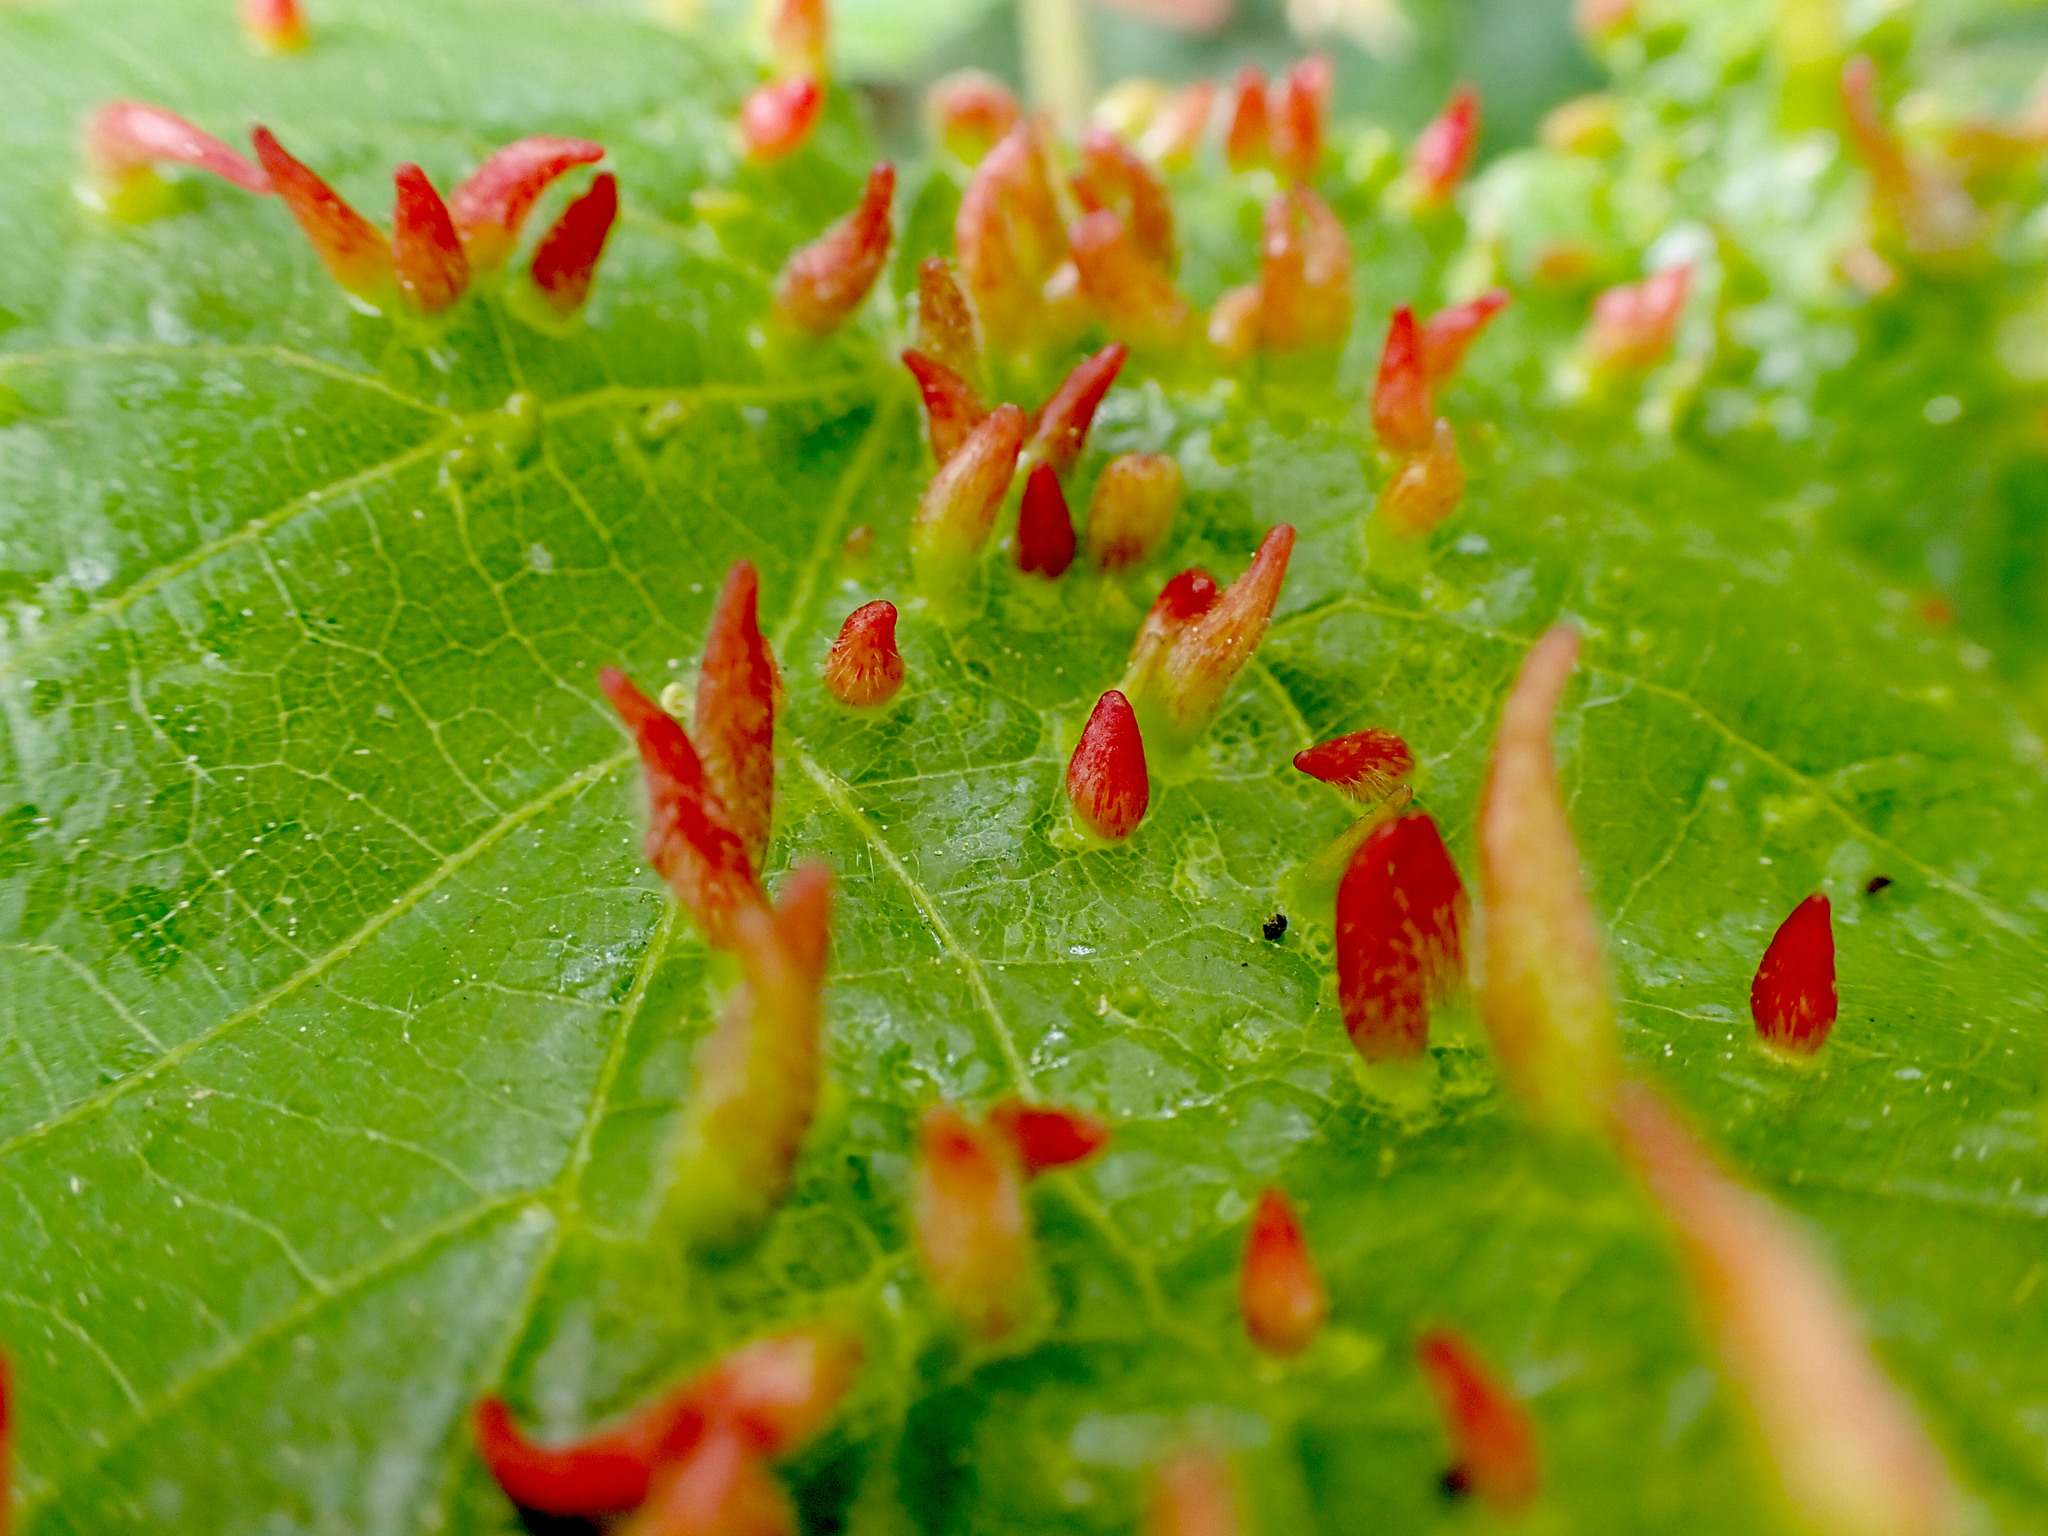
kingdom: Animalia
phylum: Arthropoda
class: Arachnida
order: Trombidiformes
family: Eriophyidae
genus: Eriophyes
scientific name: Eriophyes tiliae
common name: Red nail gall mite
